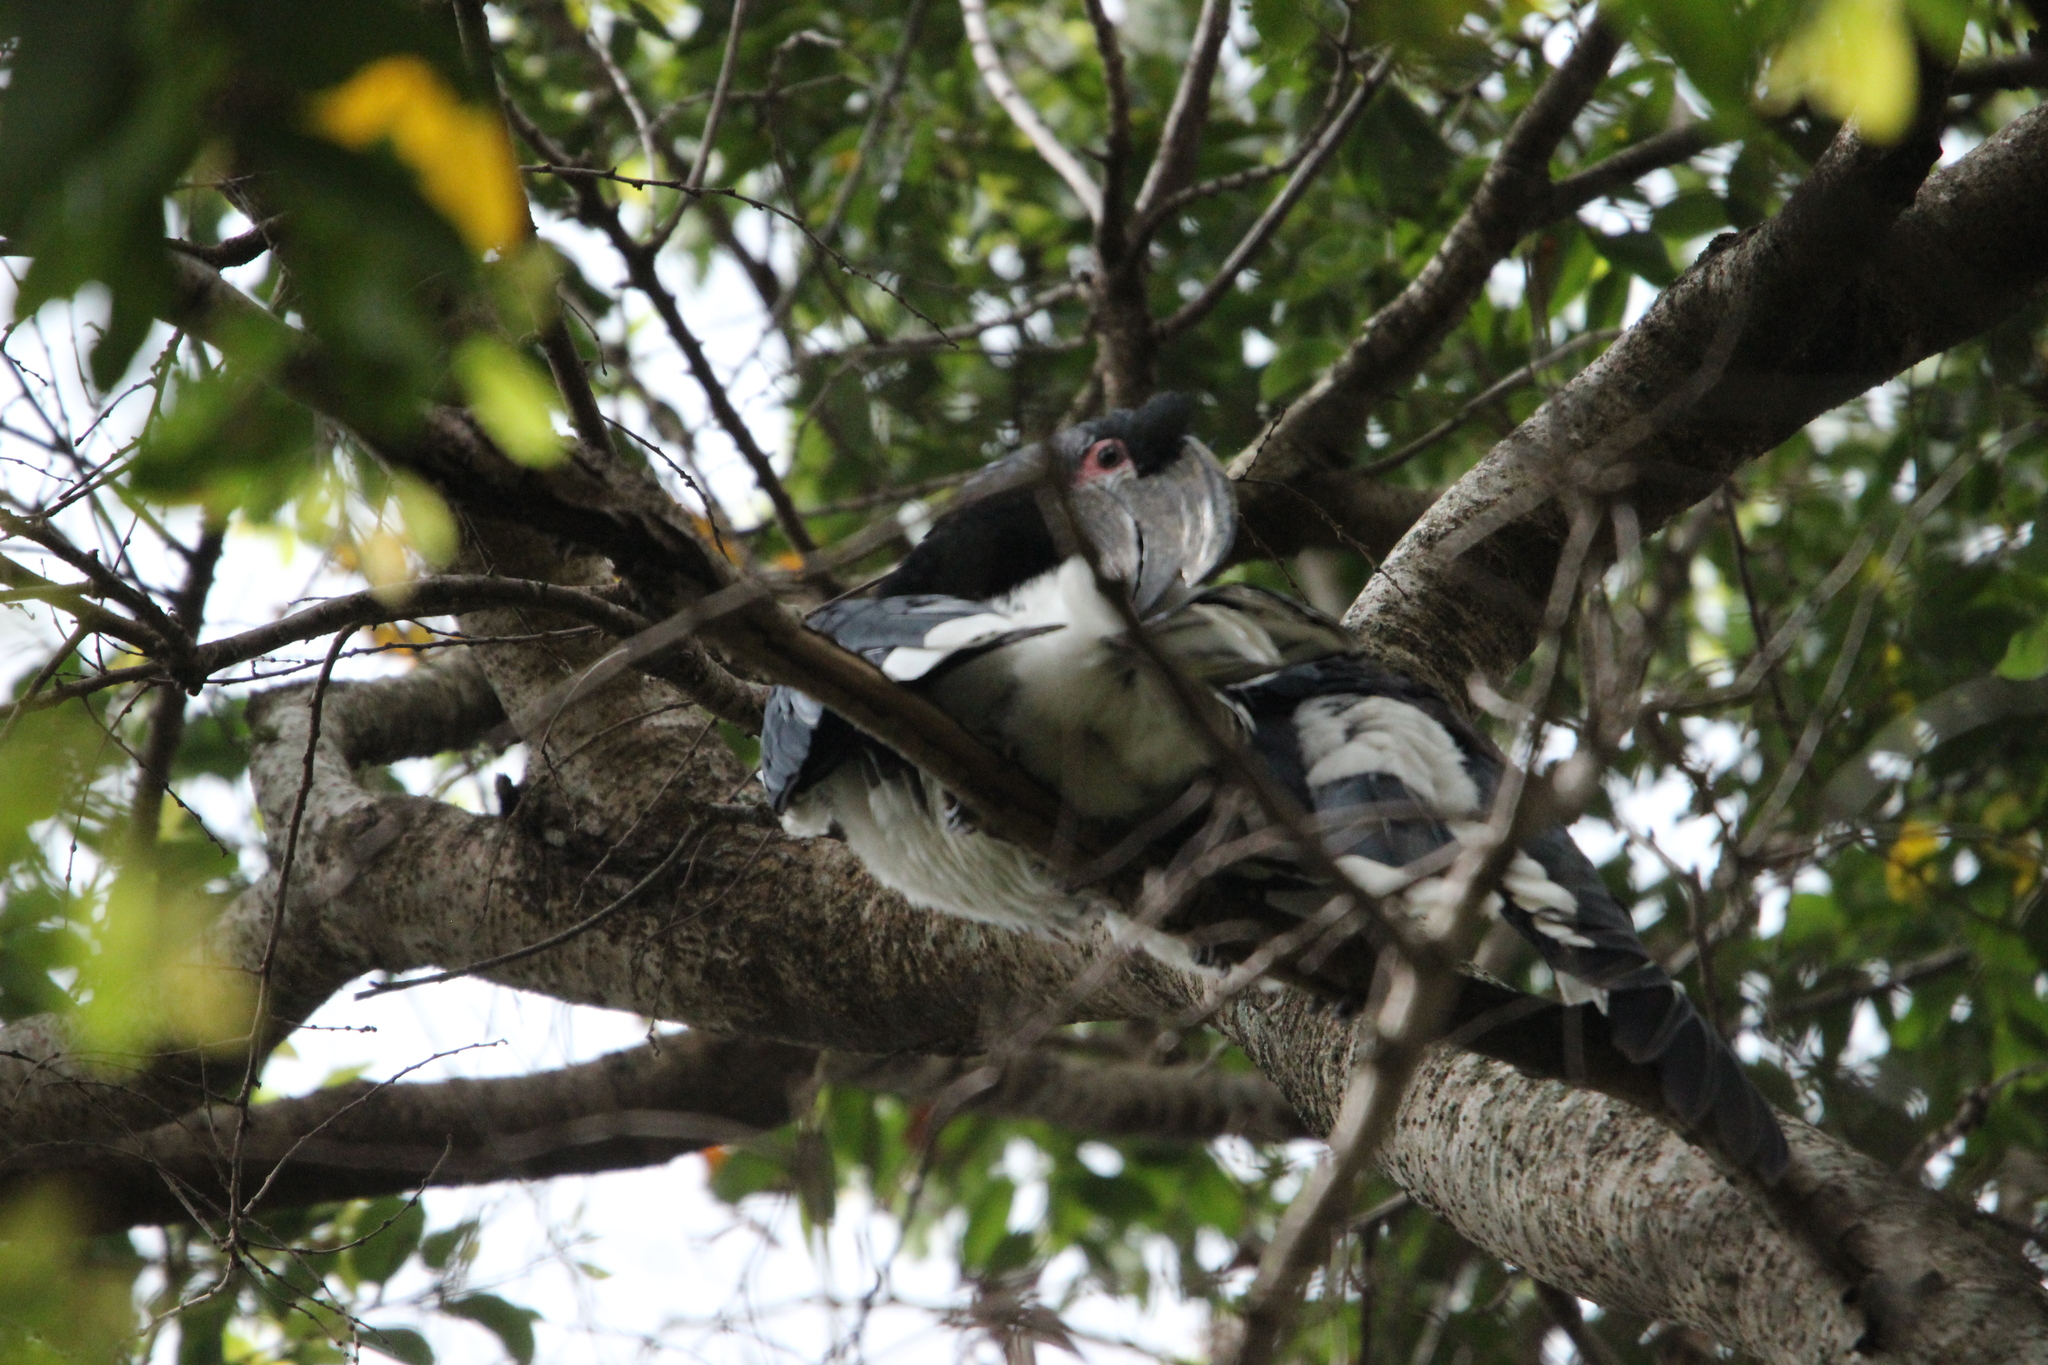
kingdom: Animalia
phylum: Chordata
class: Aves
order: Bucerotiformes
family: Bucerotidae
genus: Bycanistes
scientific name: Bycanistes bucinator
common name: Trumpeter hornbill
